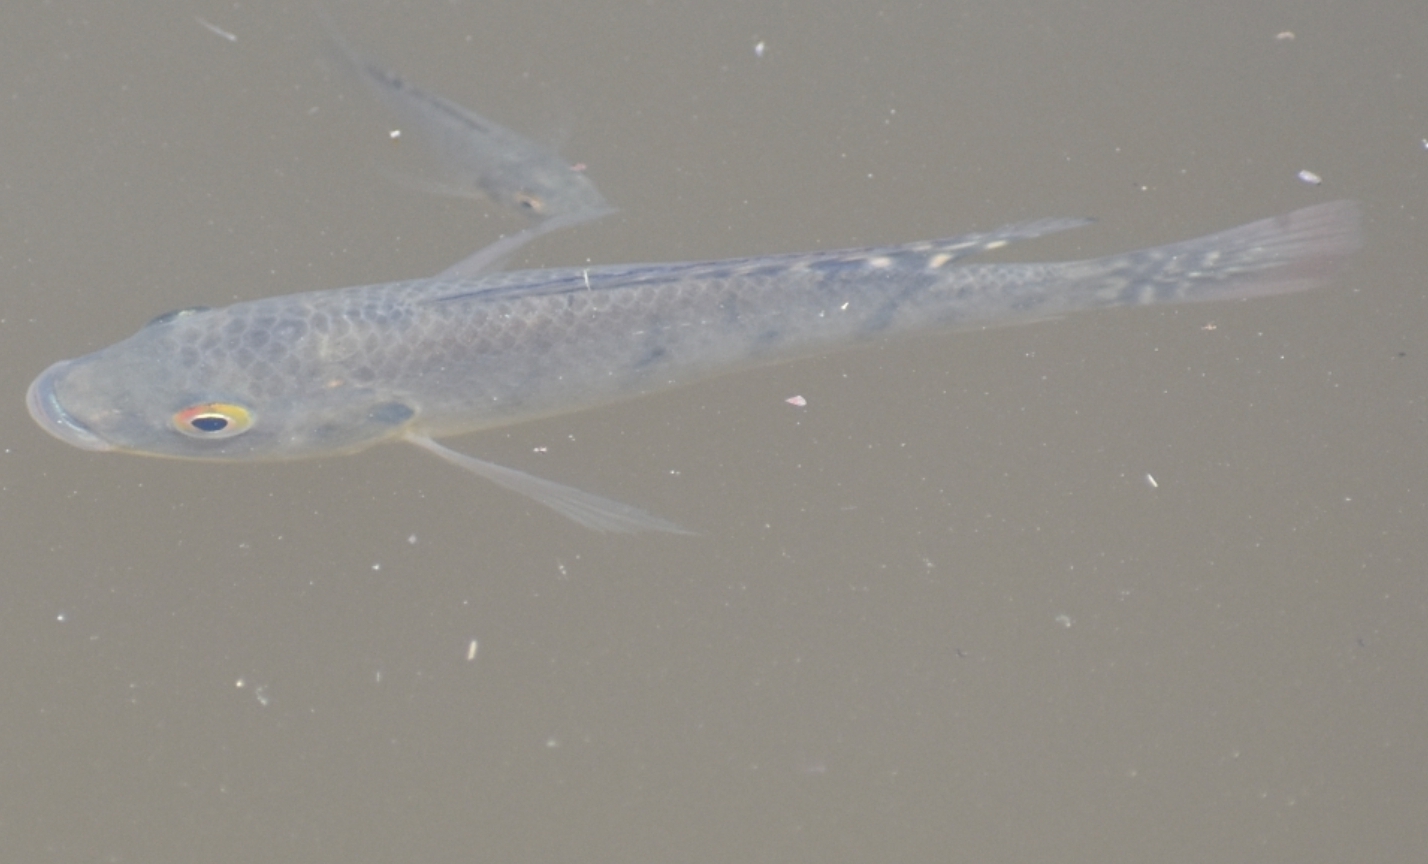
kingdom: Animalia
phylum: Chordata
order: Perciformes
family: Cichlidae
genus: Oreochromis
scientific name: Oreochromis mossambicus
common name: Mozambique tilapia
